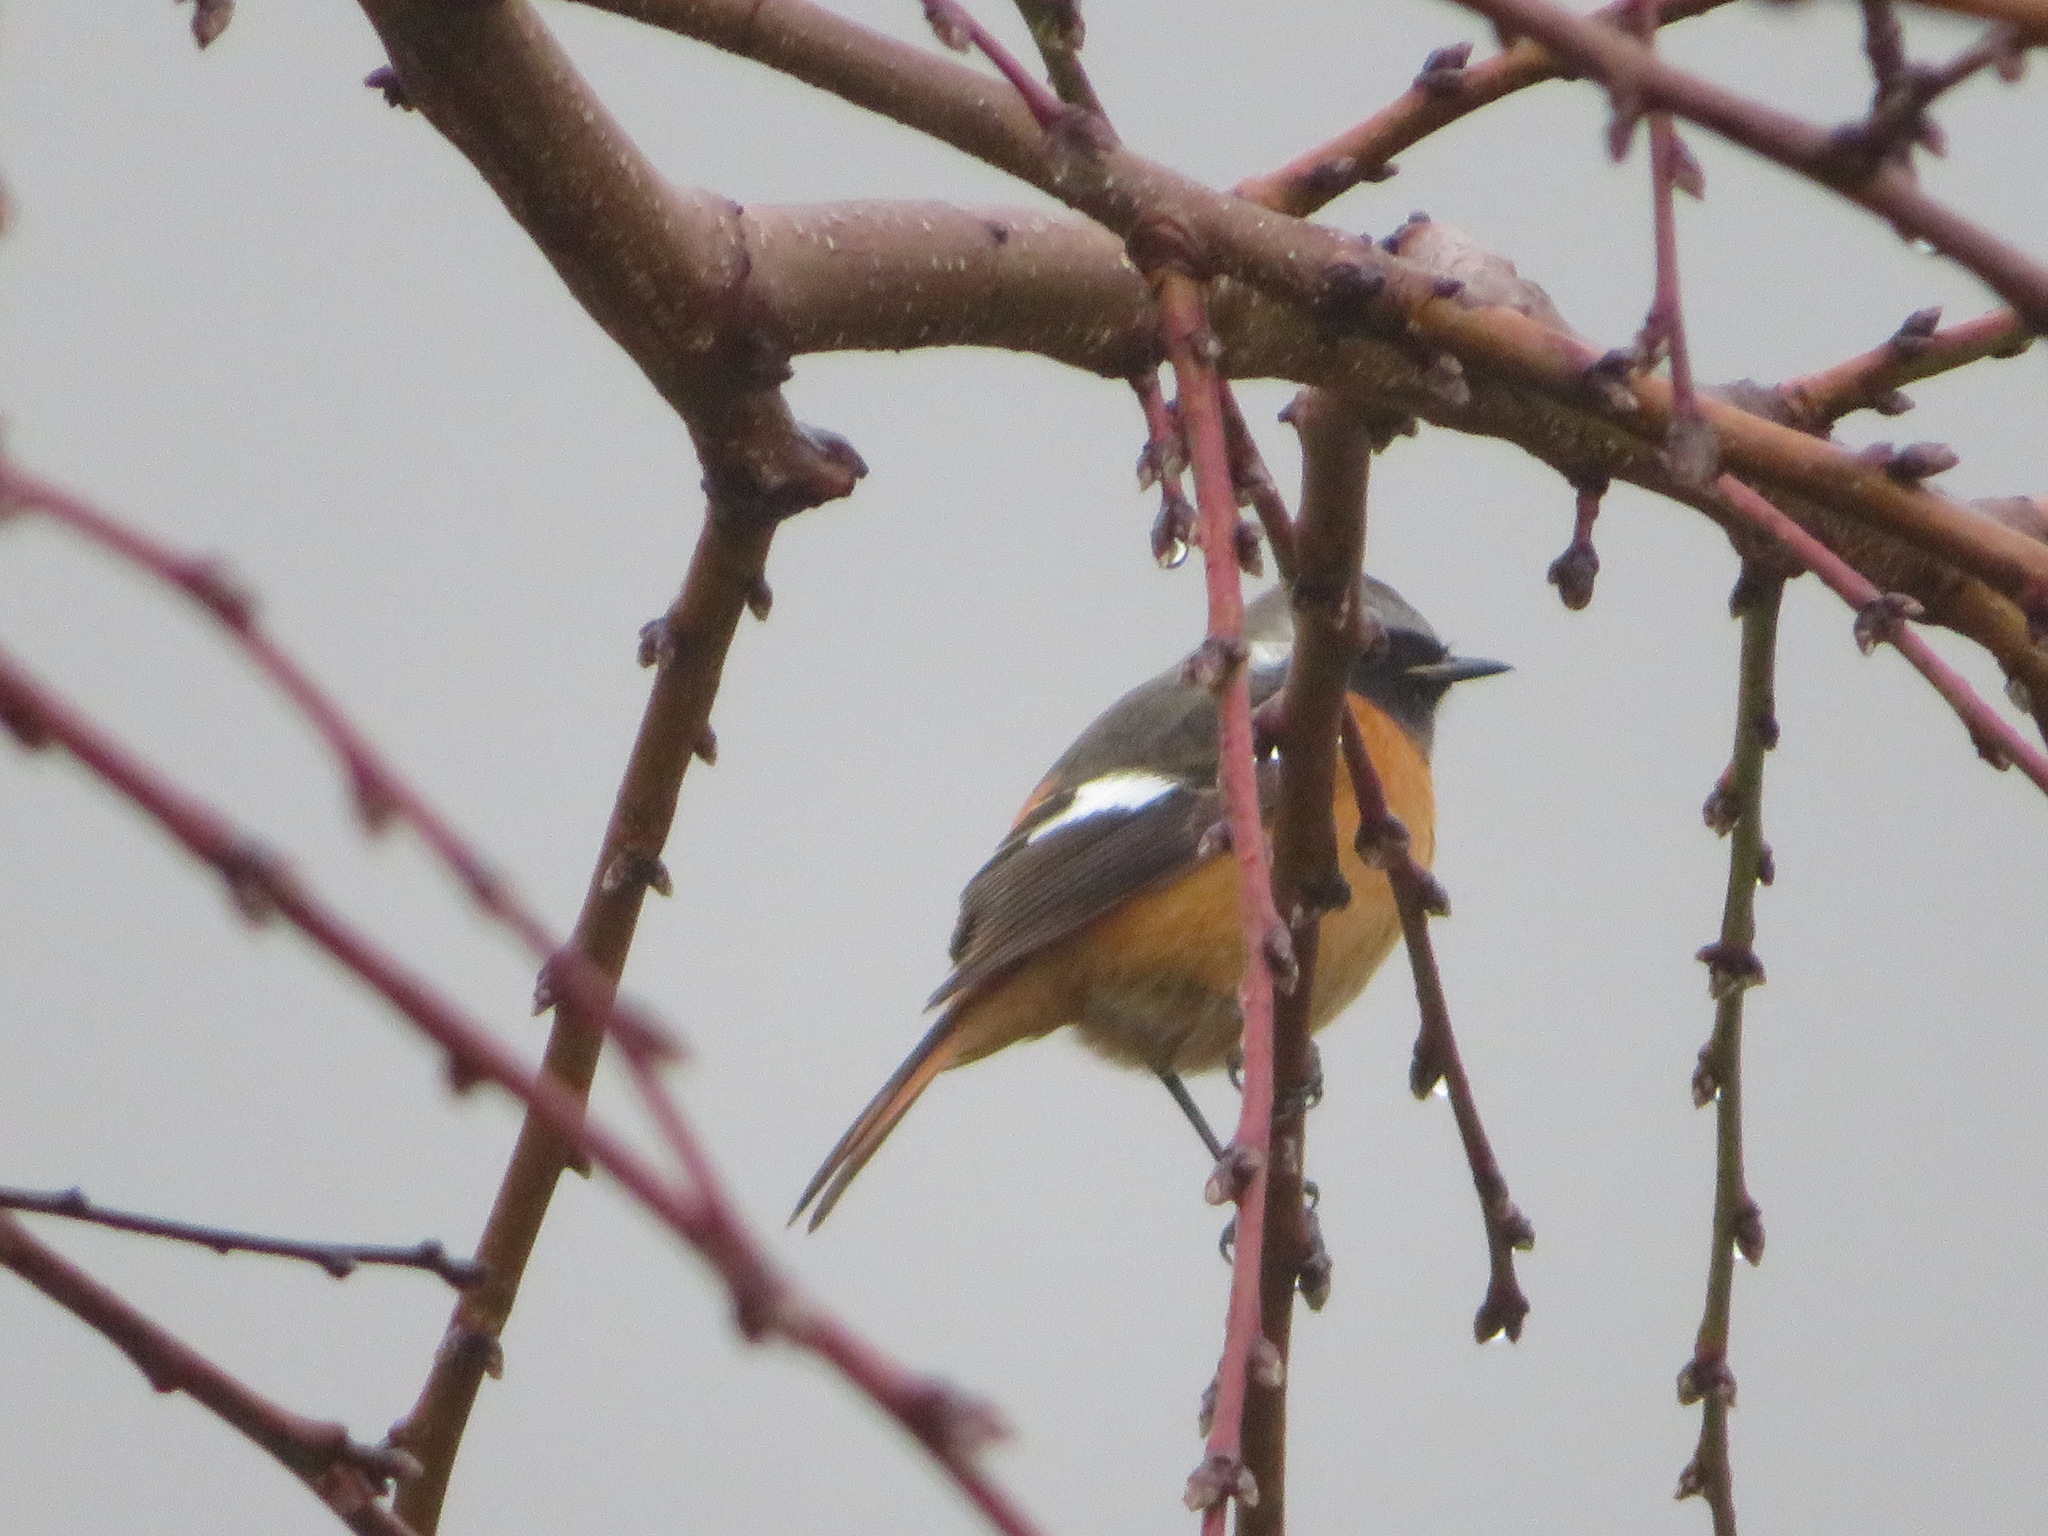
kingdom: Animalia
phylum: Chordata
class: Aves
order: Passeriformes
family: Muscicapidae
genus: Phoenicurus
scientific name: Phoenicurus auroreus
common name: Daurian redstart
